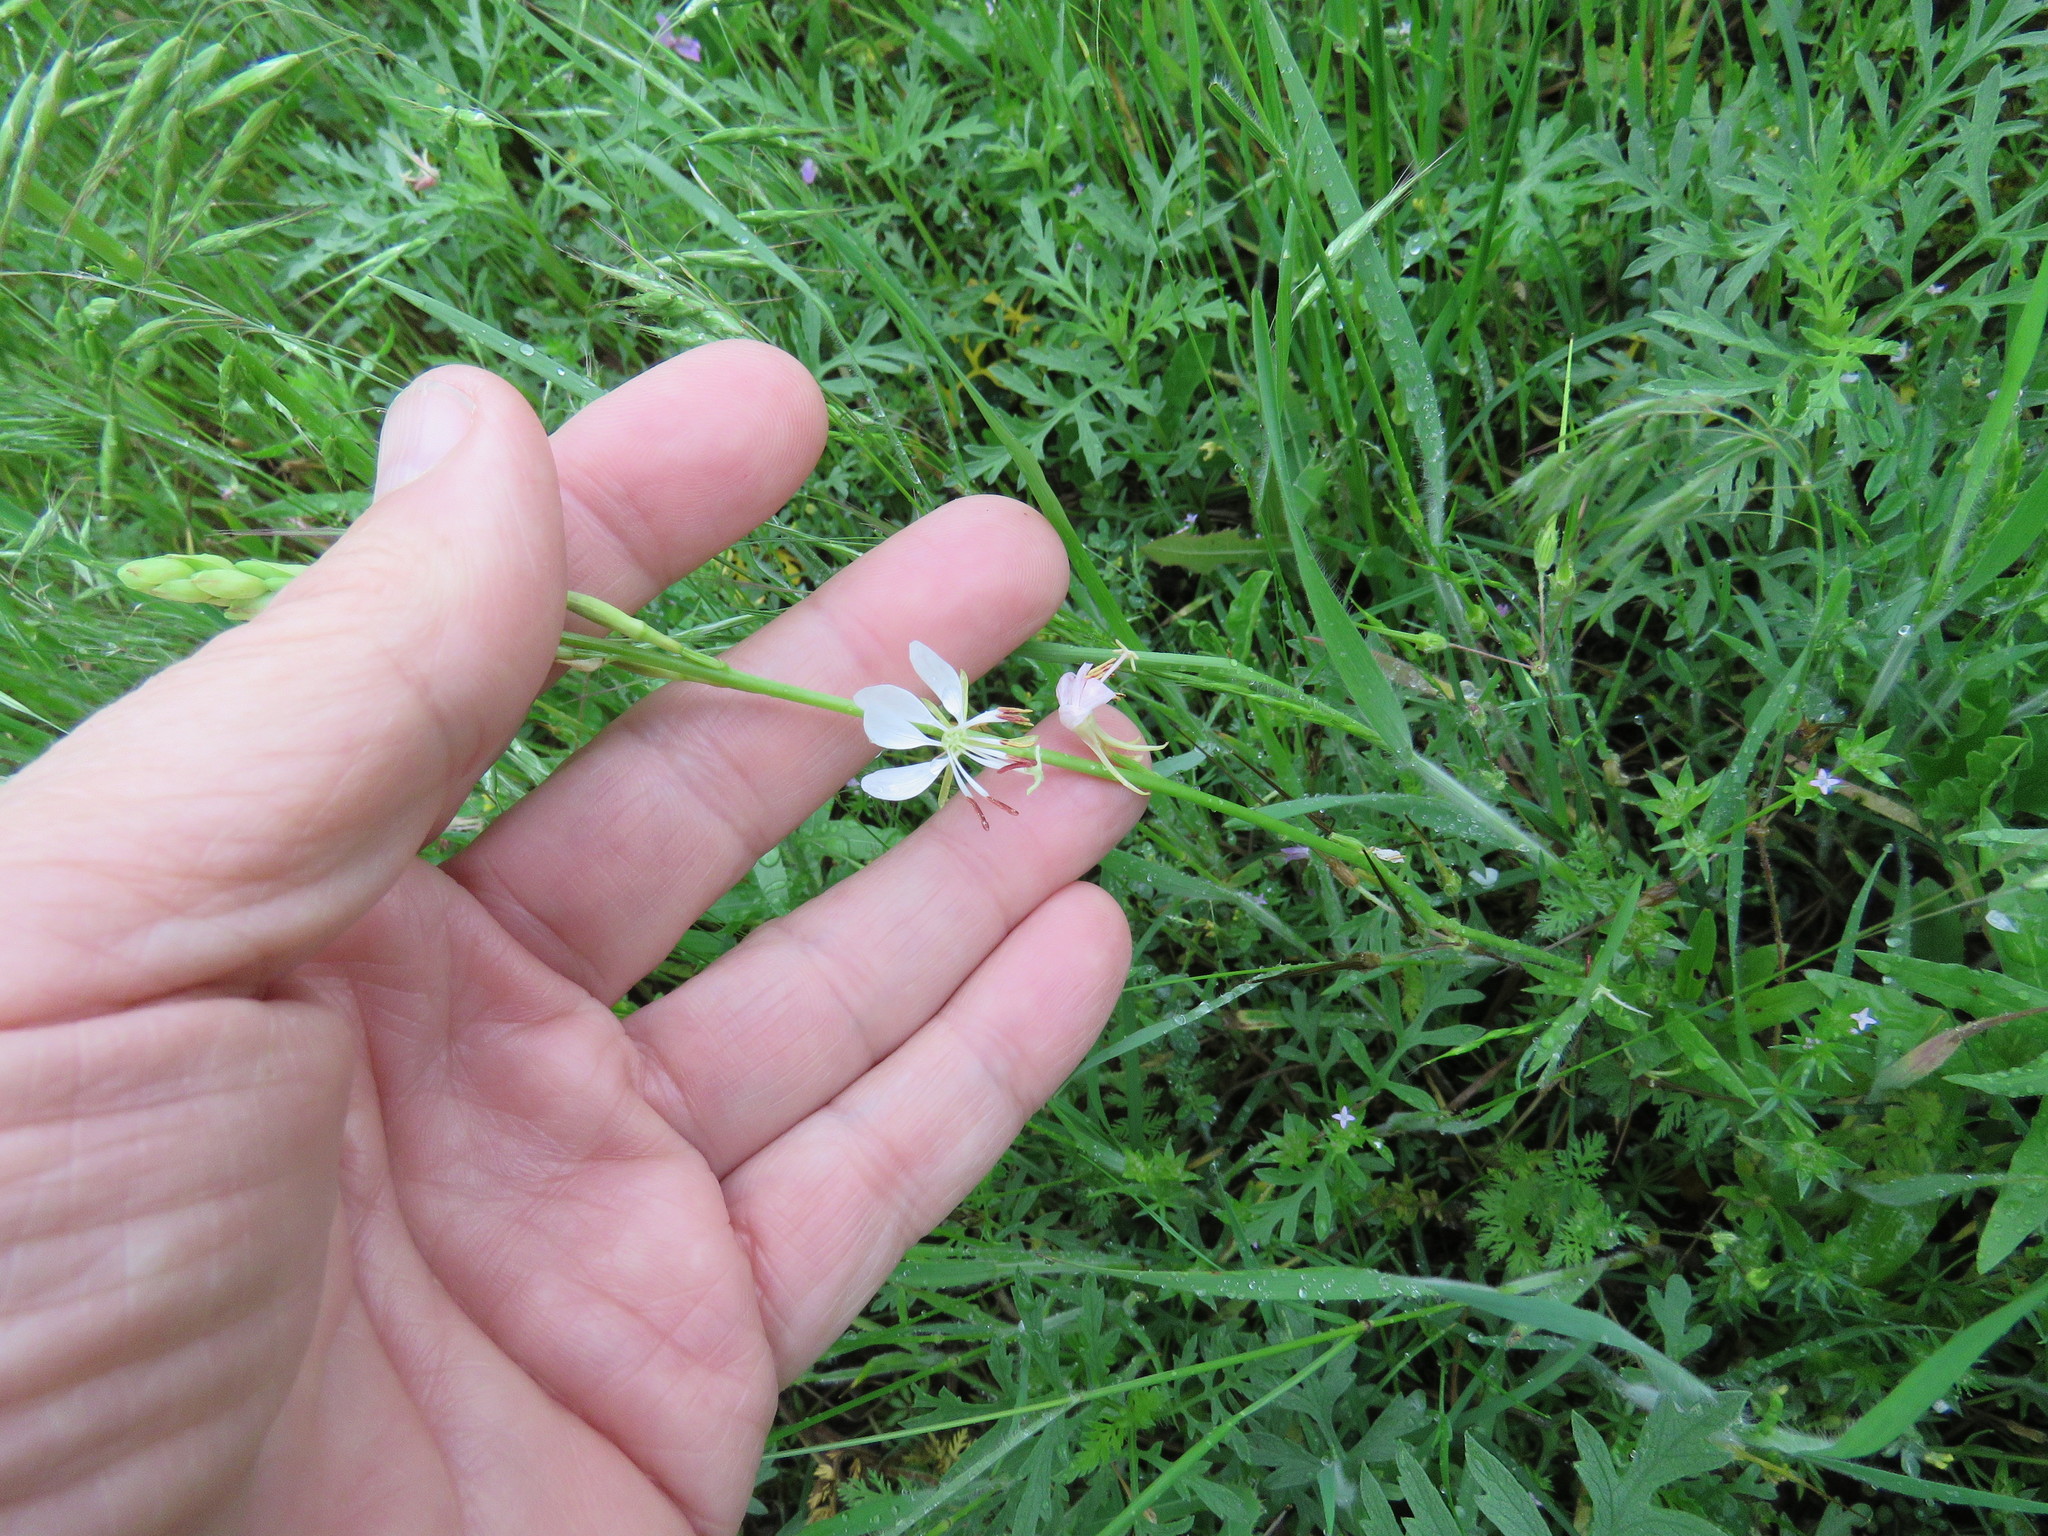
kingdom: Plantae
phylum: Tracheophyta
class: Magnoliopsida
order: Myrtales
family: Onagraceae
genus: Oenothera
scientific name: Oenothera suffulta
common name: Kisses
